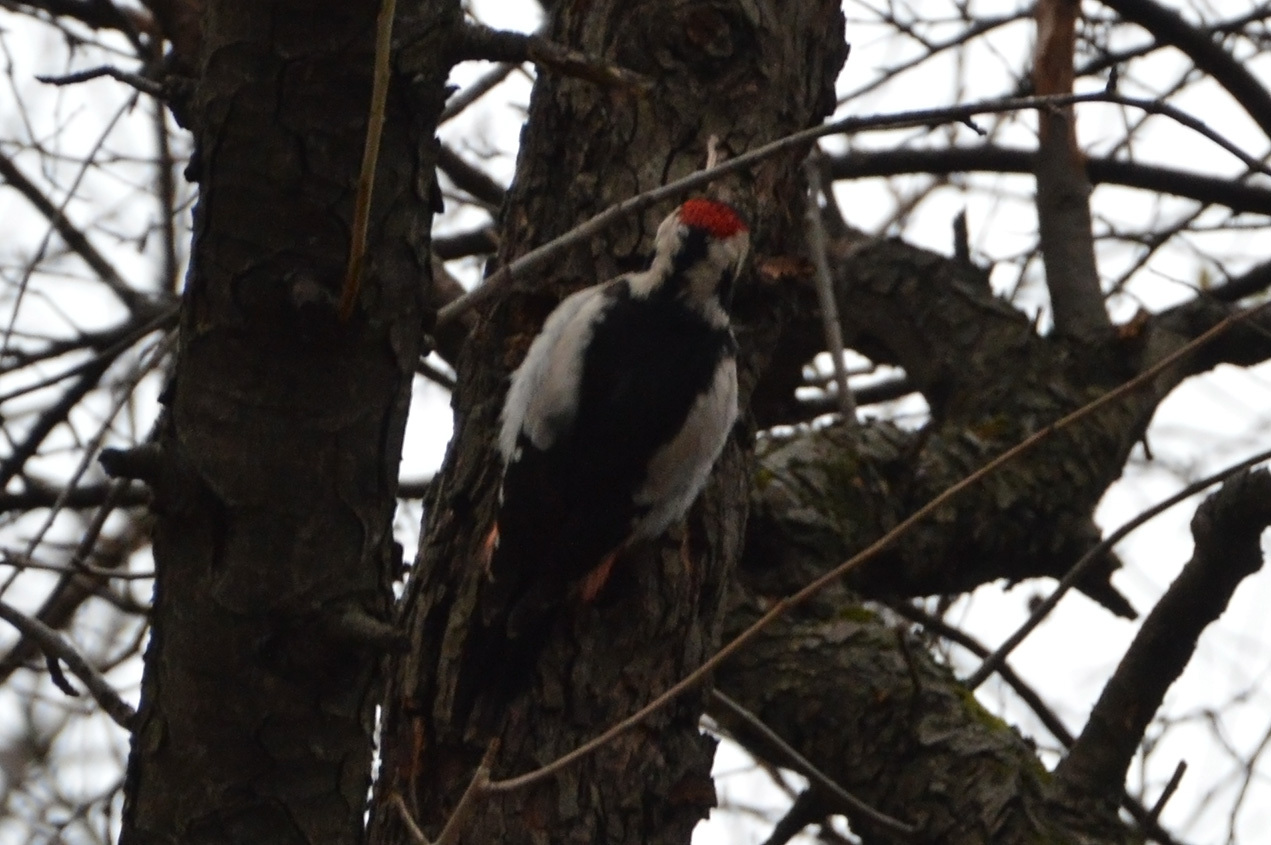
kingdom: Animalia
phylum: Chordata
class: Aves
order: Piciformes
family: Picidae
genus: Dendrocopos
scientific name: Dendrocopos syriacus
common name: Syrian woodpecker
